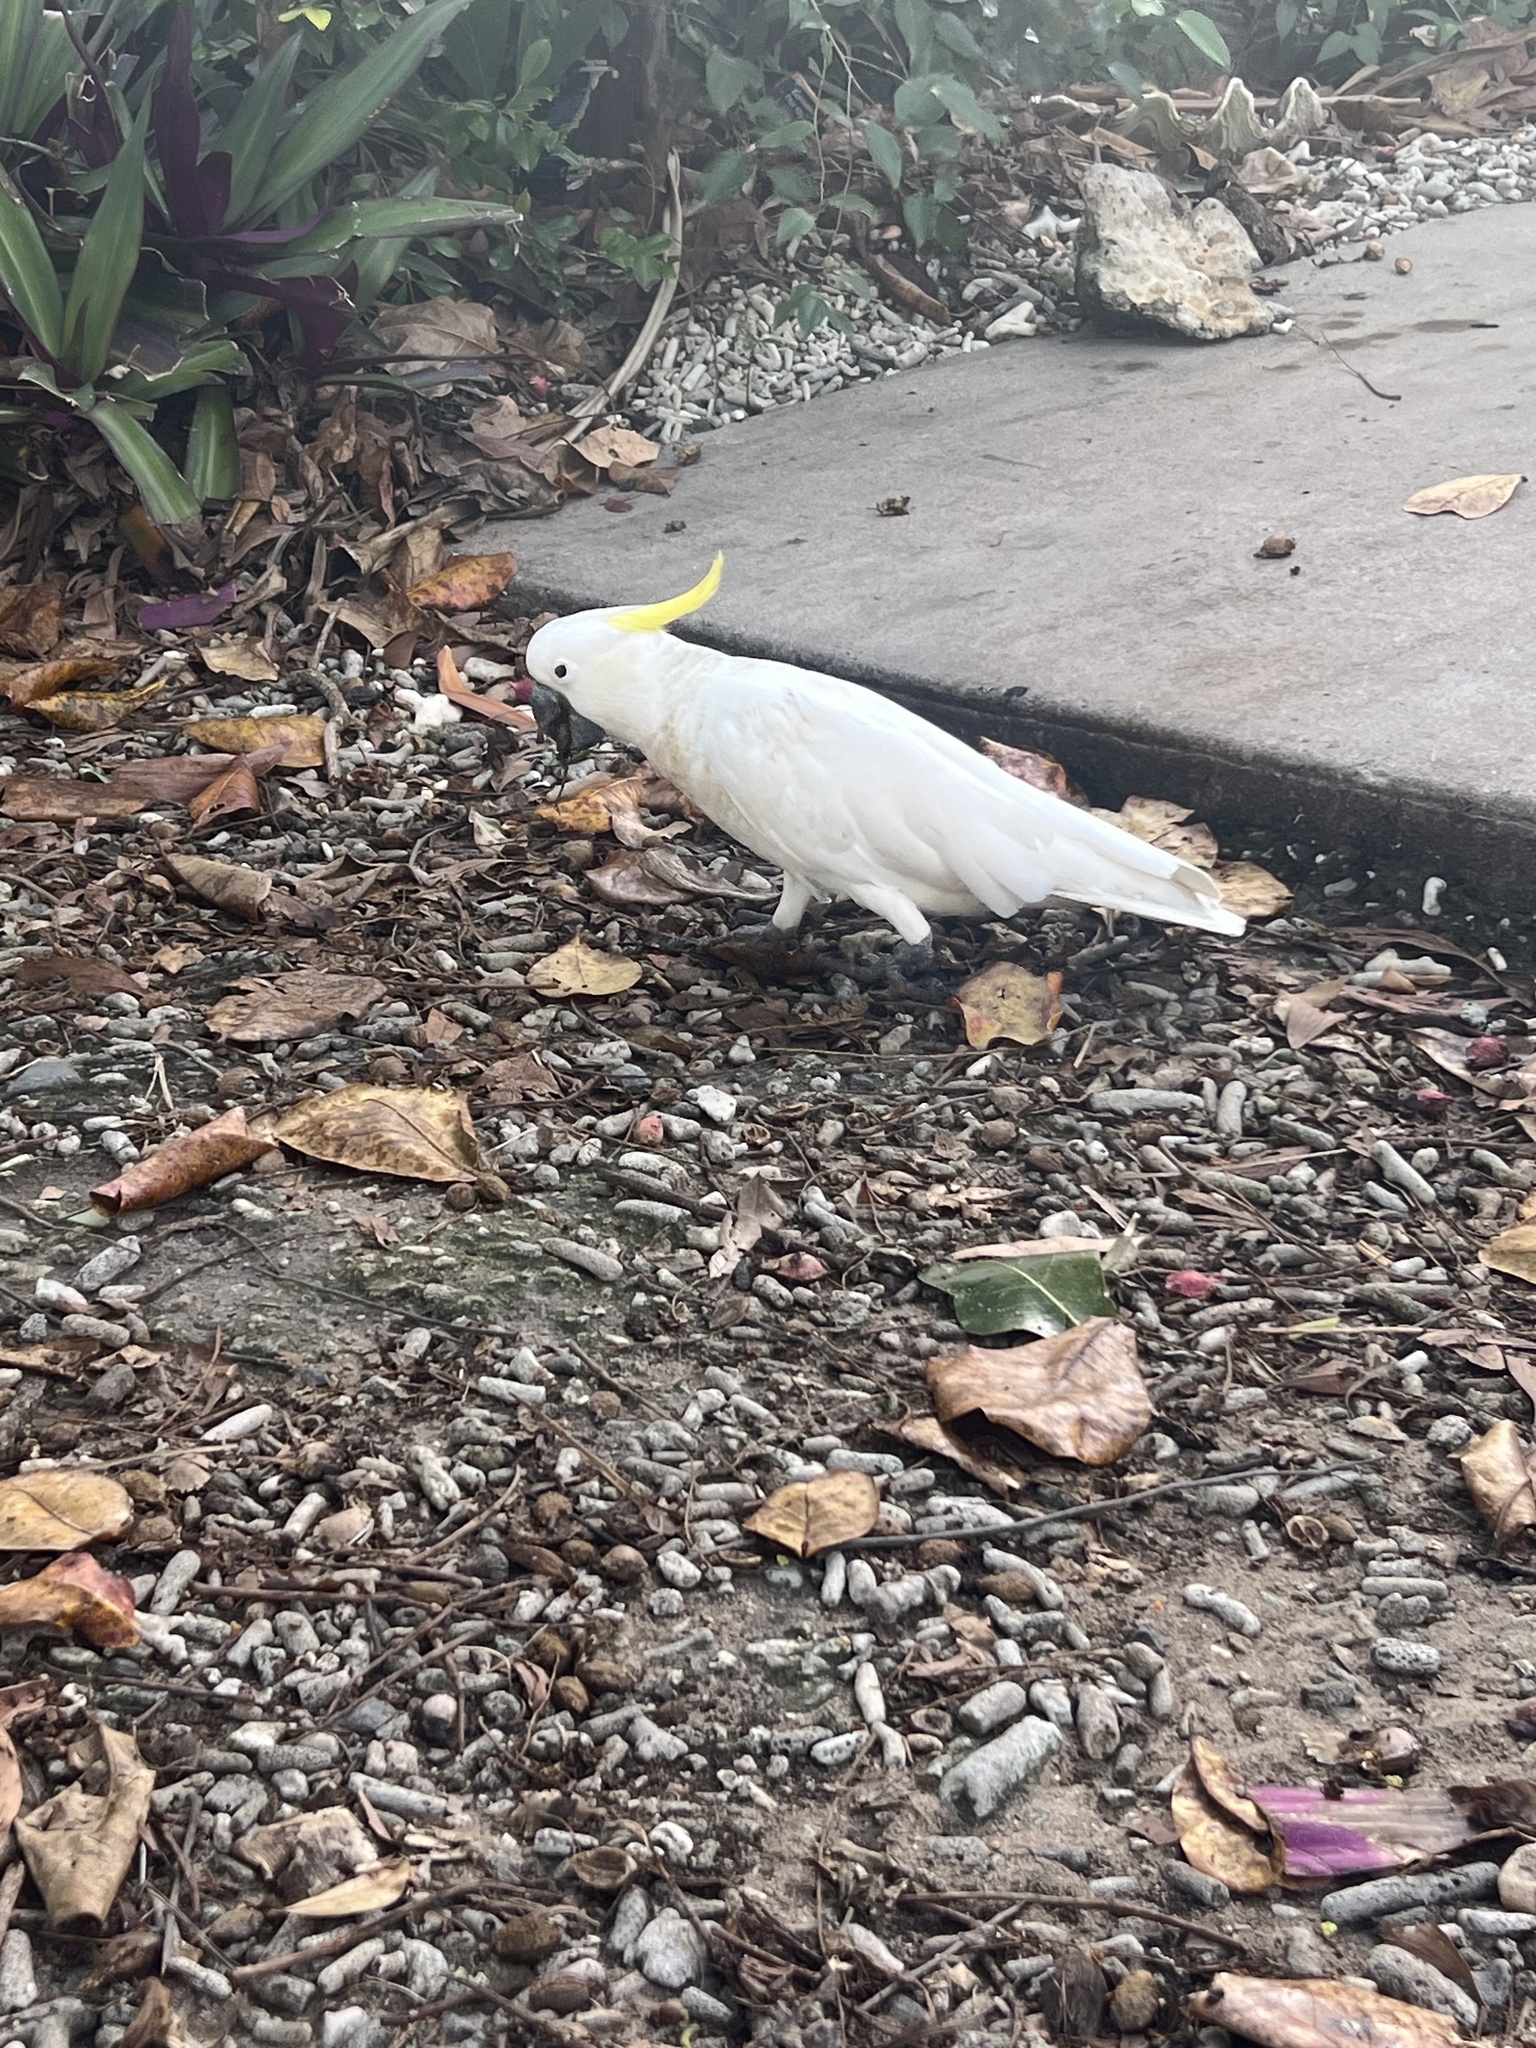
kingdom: Animalia
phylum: Chordata
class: Aves
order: Psittaciformes
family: Psittacidae
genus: Cacatua
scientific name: Cacatua galerita
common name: Sulphur-crested cockatoo
